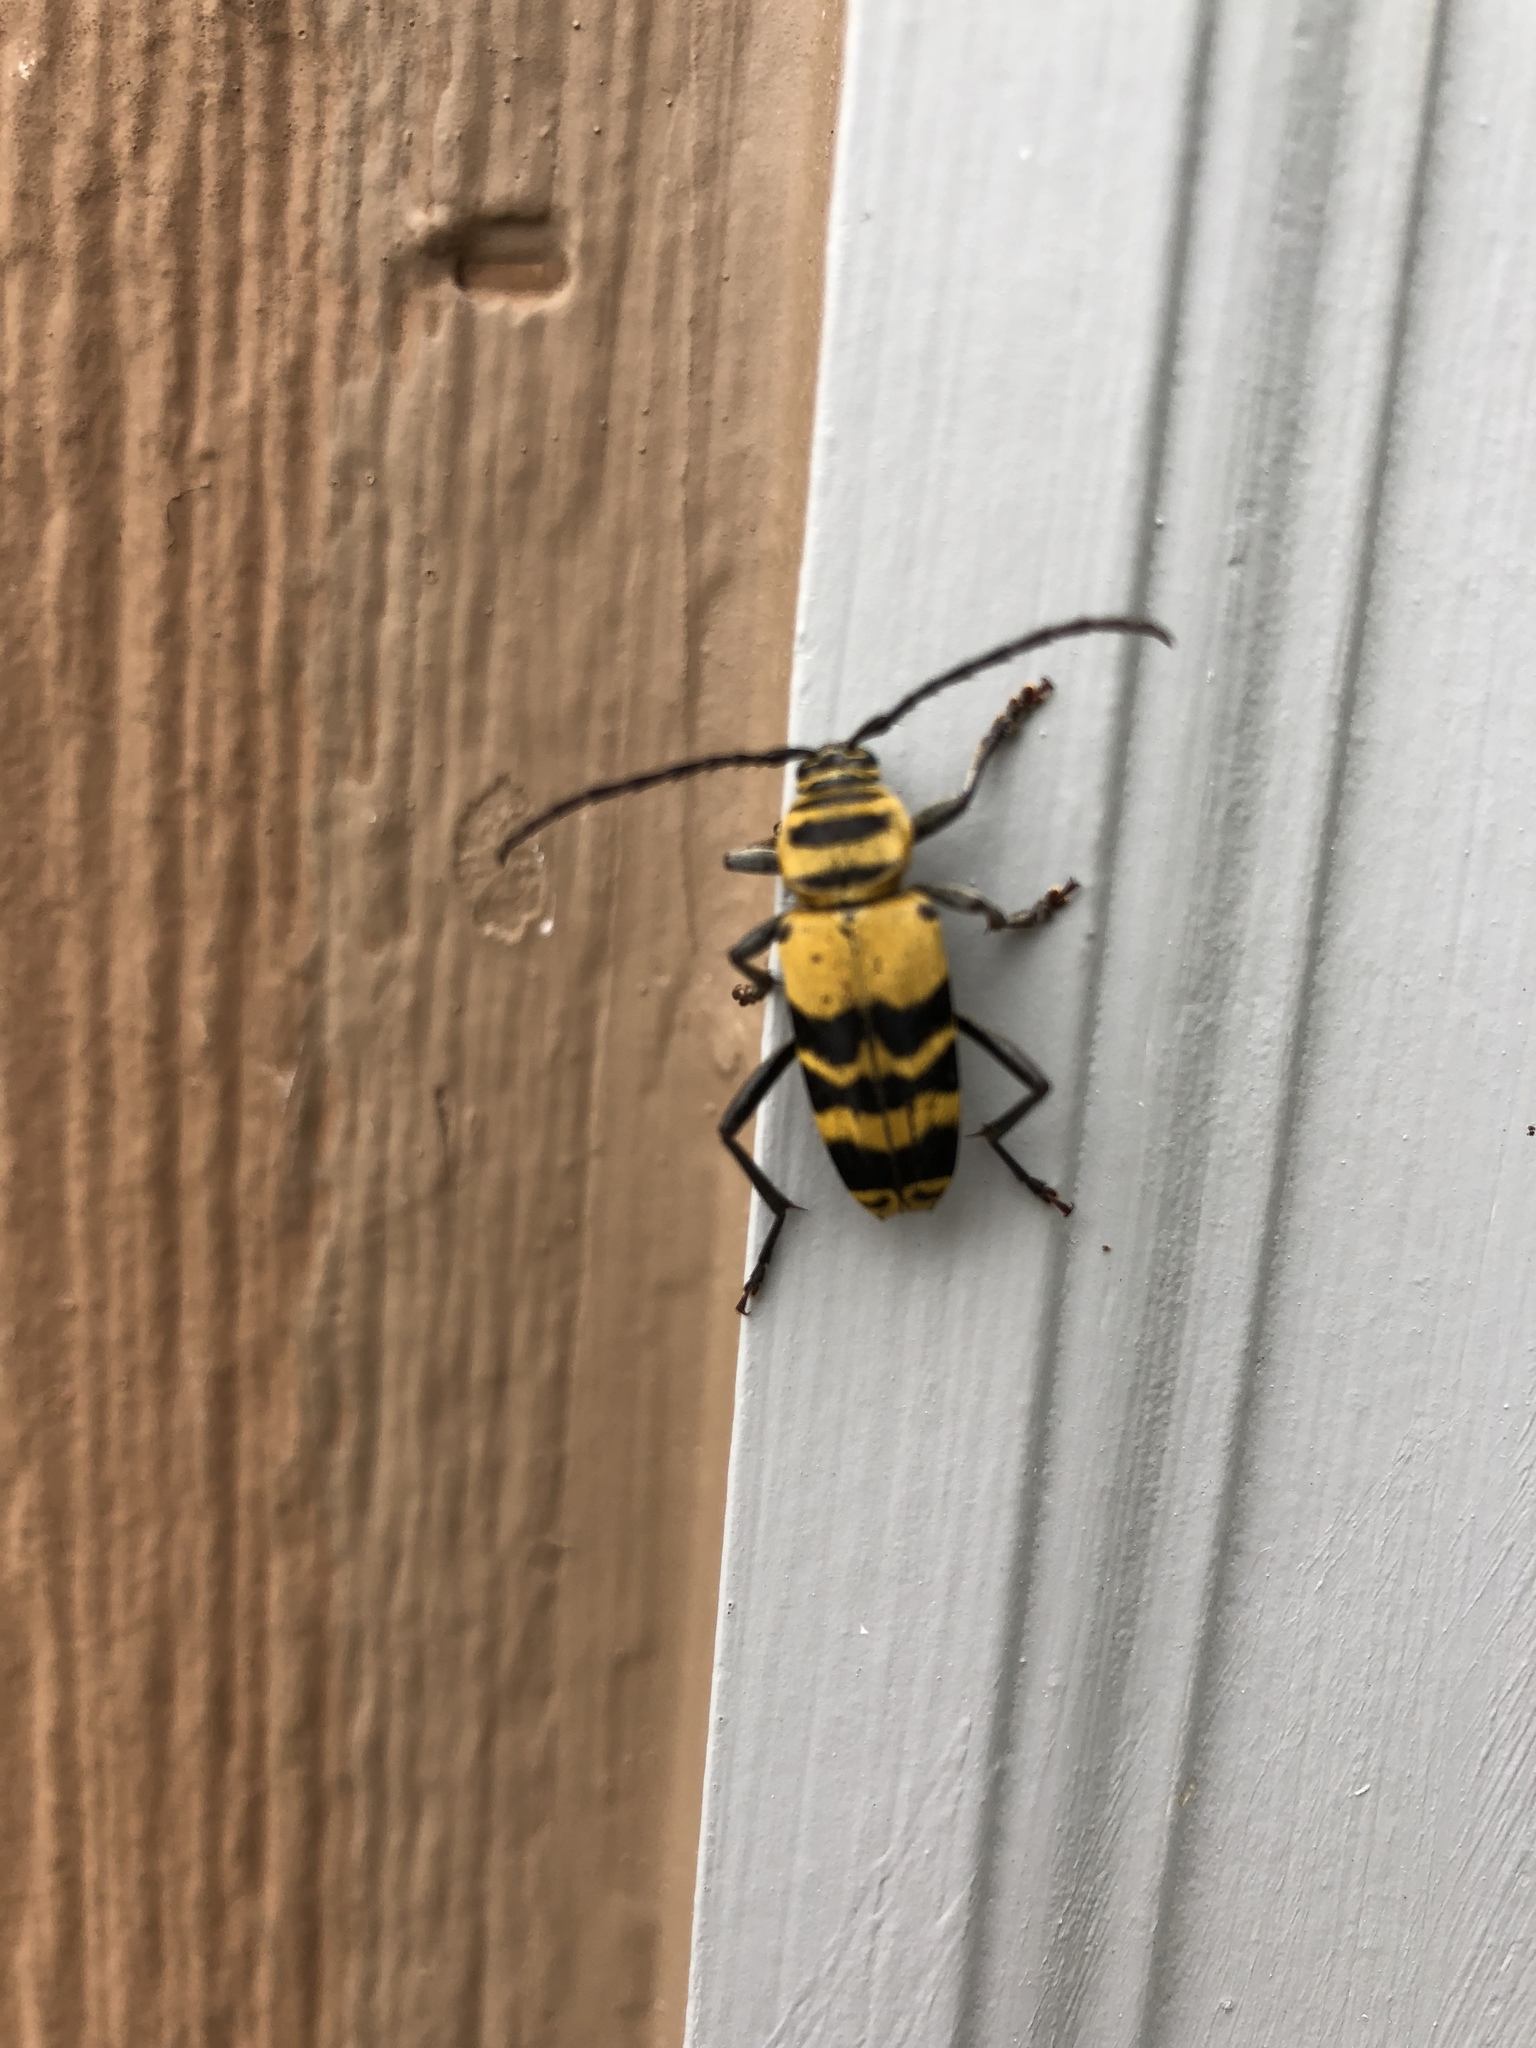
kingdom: Animalia
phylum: Arthropoda
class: Insecta
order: Coleoptera
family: Cerambycidae
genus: Megacyllene
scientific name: Megacyllene decora
